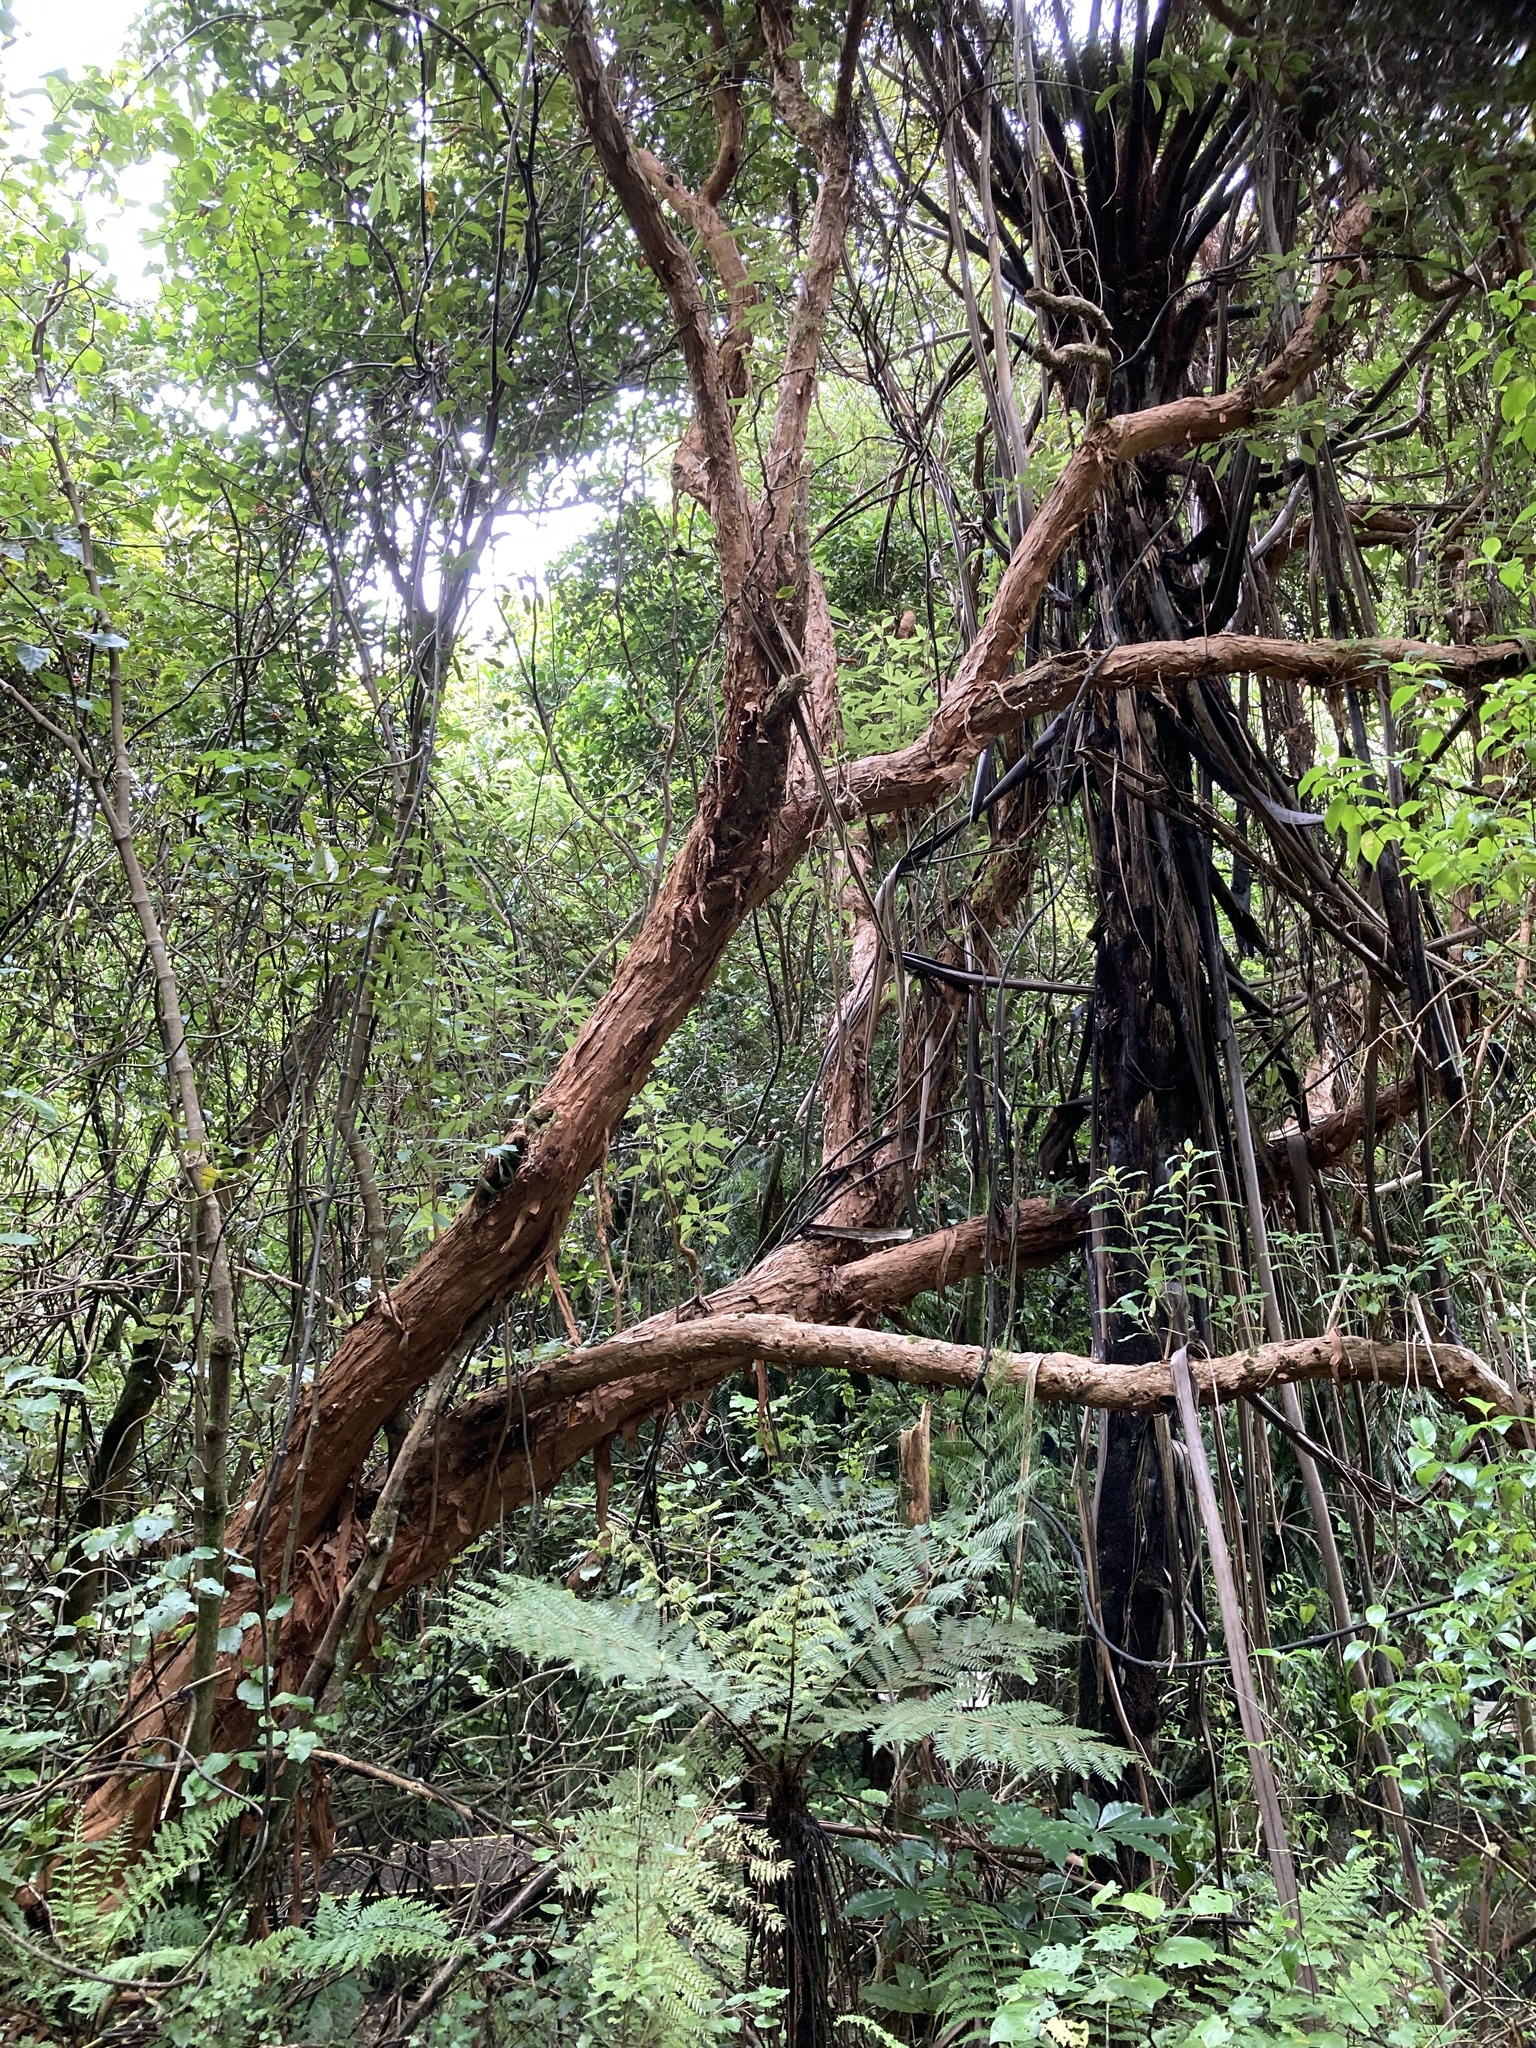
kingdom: Plantae
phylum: Tracheophyta
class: Magnoliopsida
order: Myrtales
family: Onagraceae
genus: Fuchsia
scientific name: Fuchsia excorticata
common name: Tree fuchsia
